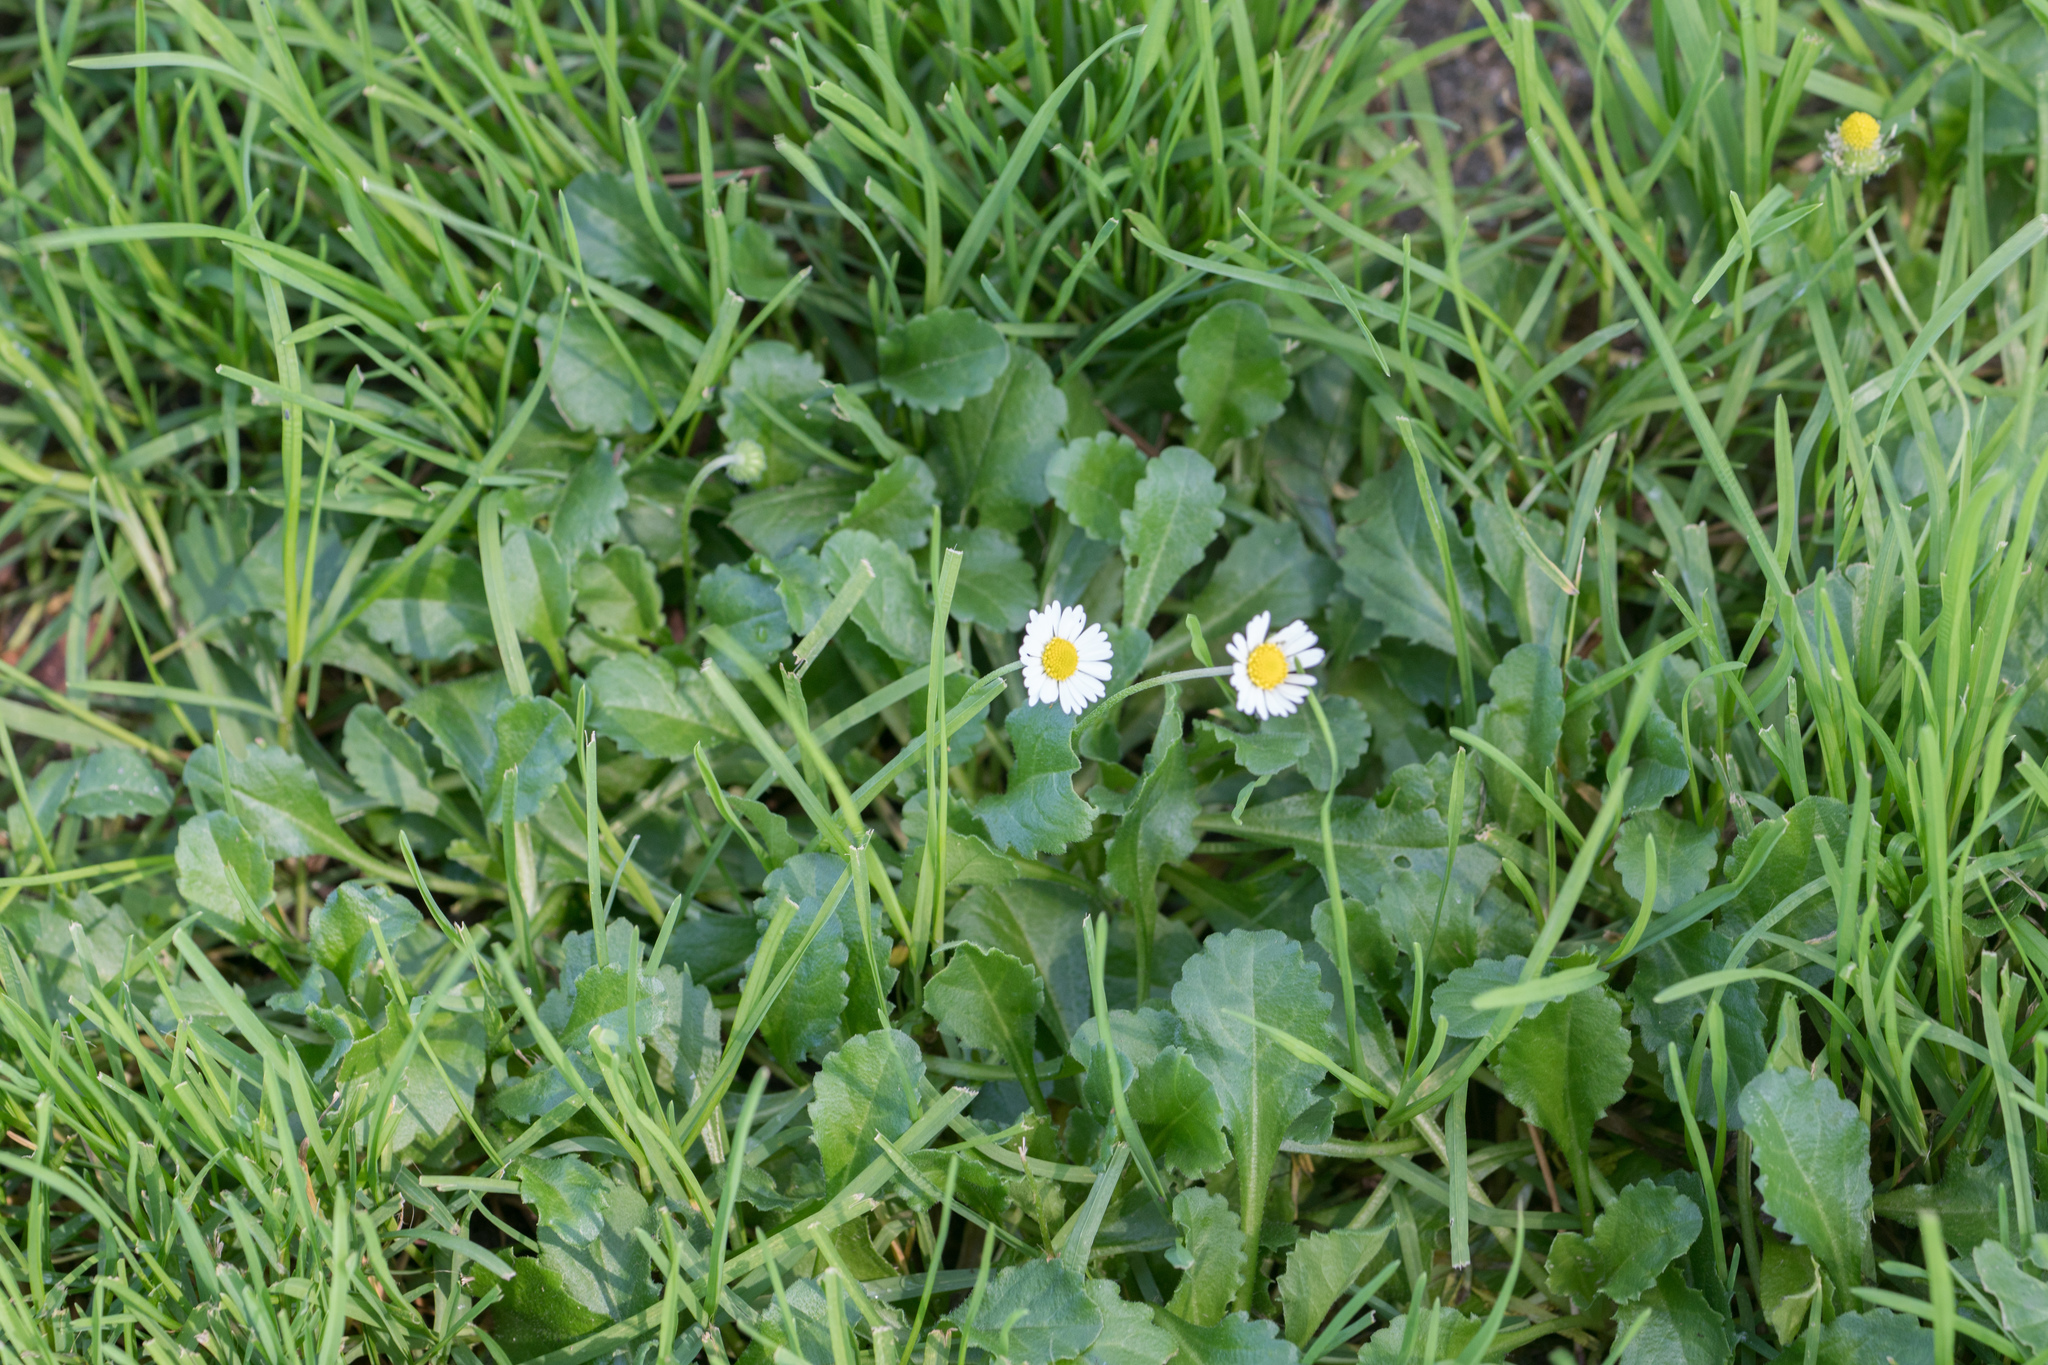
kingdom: Plantae
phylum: Tracheophyta
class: Magnoliopsida
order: Asterales
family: Asteraceae
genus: Bellis
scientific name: Bellis perennis
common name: Lawndaisy
